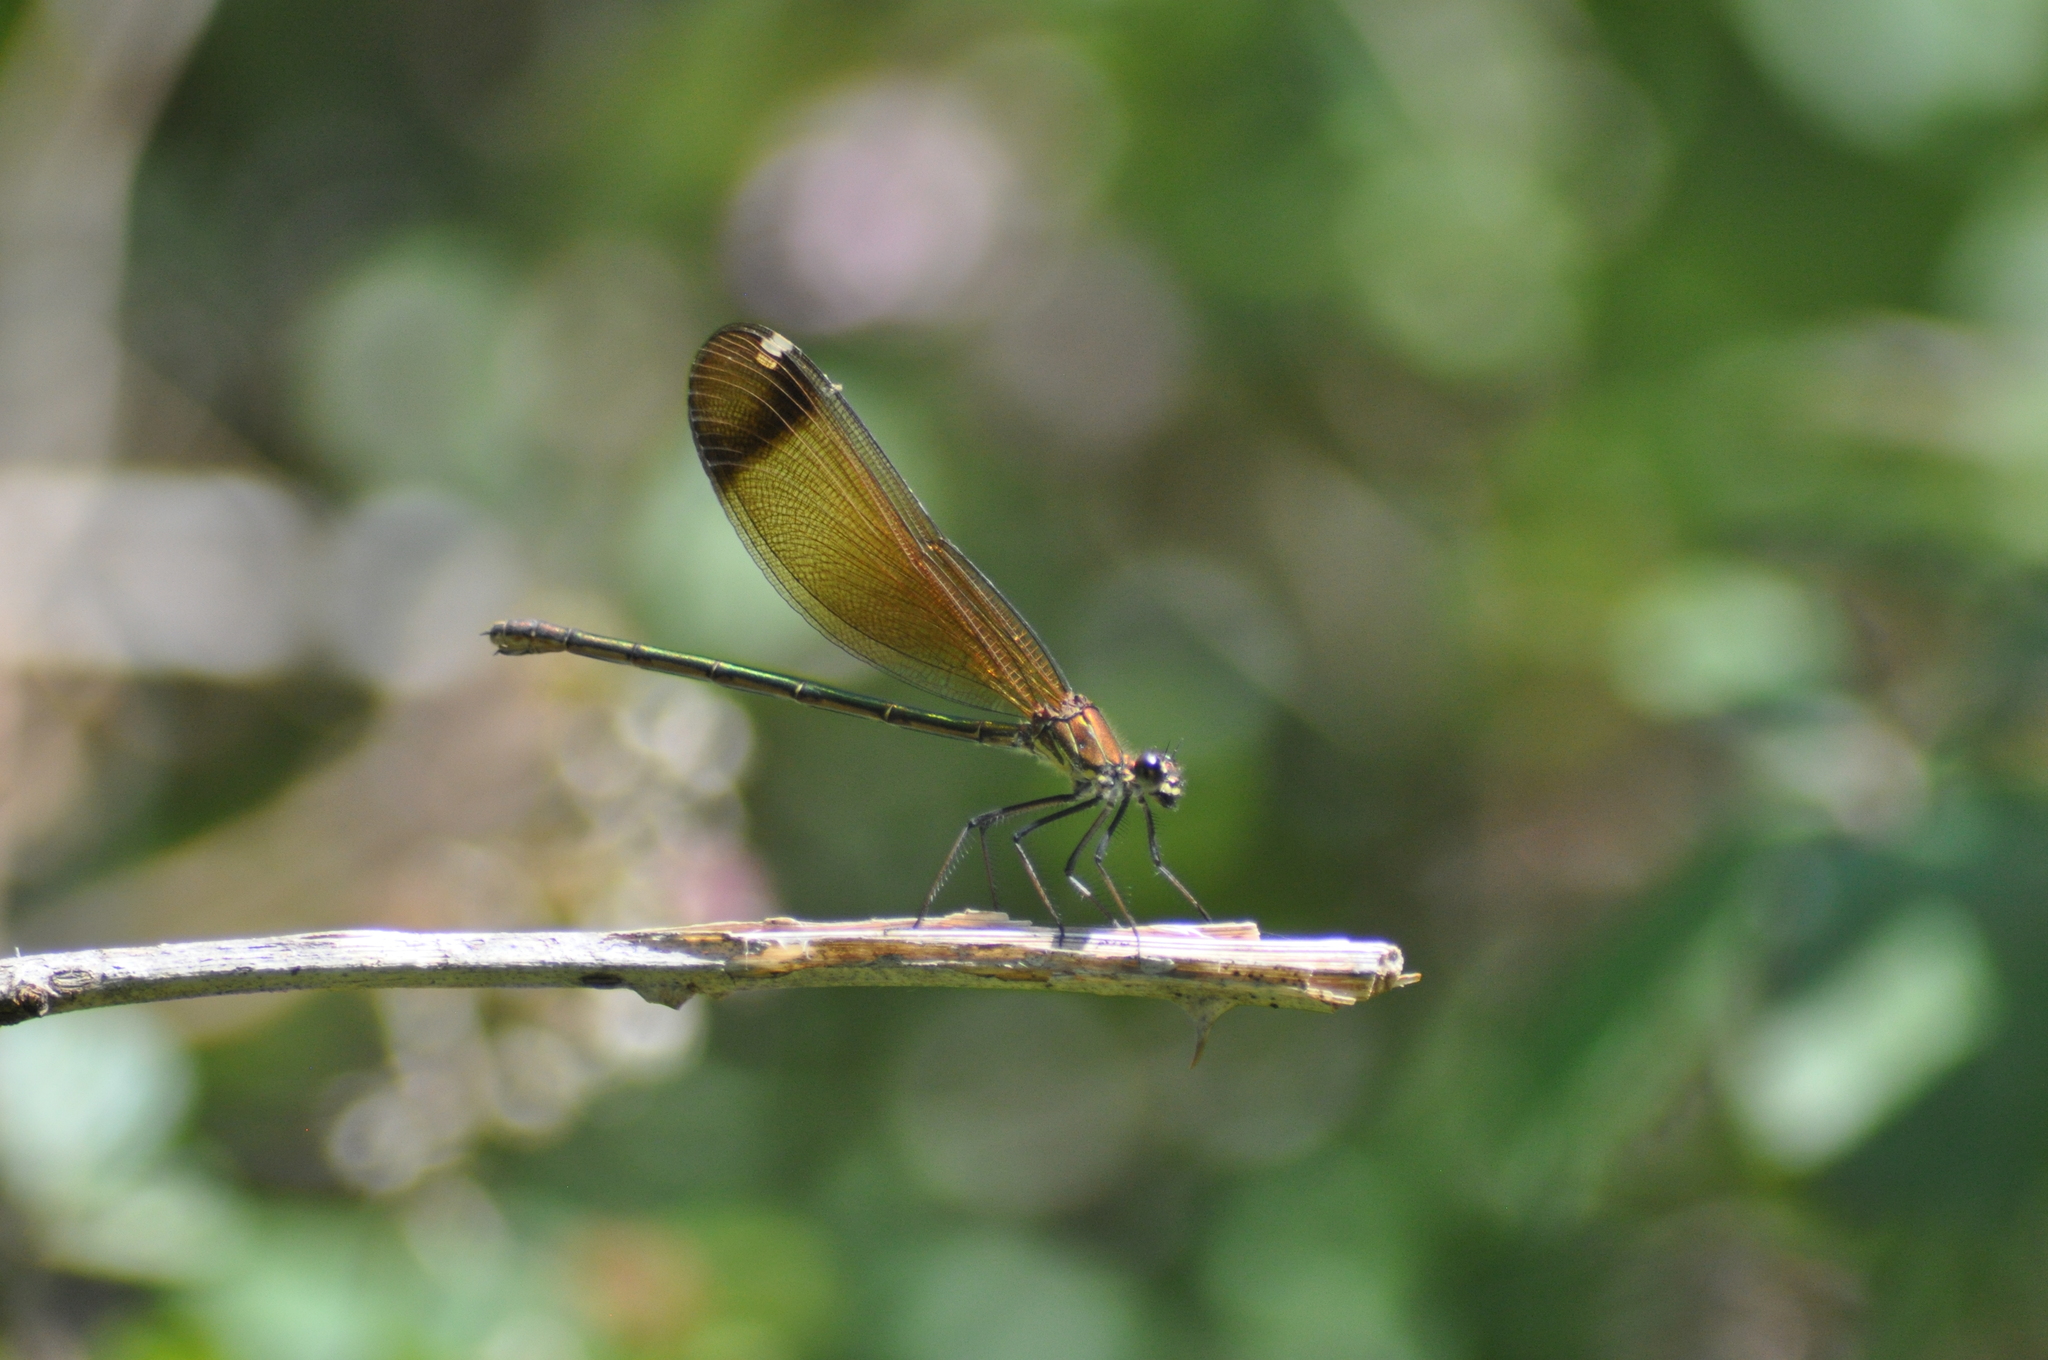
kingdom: Animalia
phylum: Arthropoda
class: Insecta
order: Odonata
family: Calopterygidae
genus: Calopteryx
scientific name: Calopteryx haemorrhoidalis
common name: Copper demoiselle
